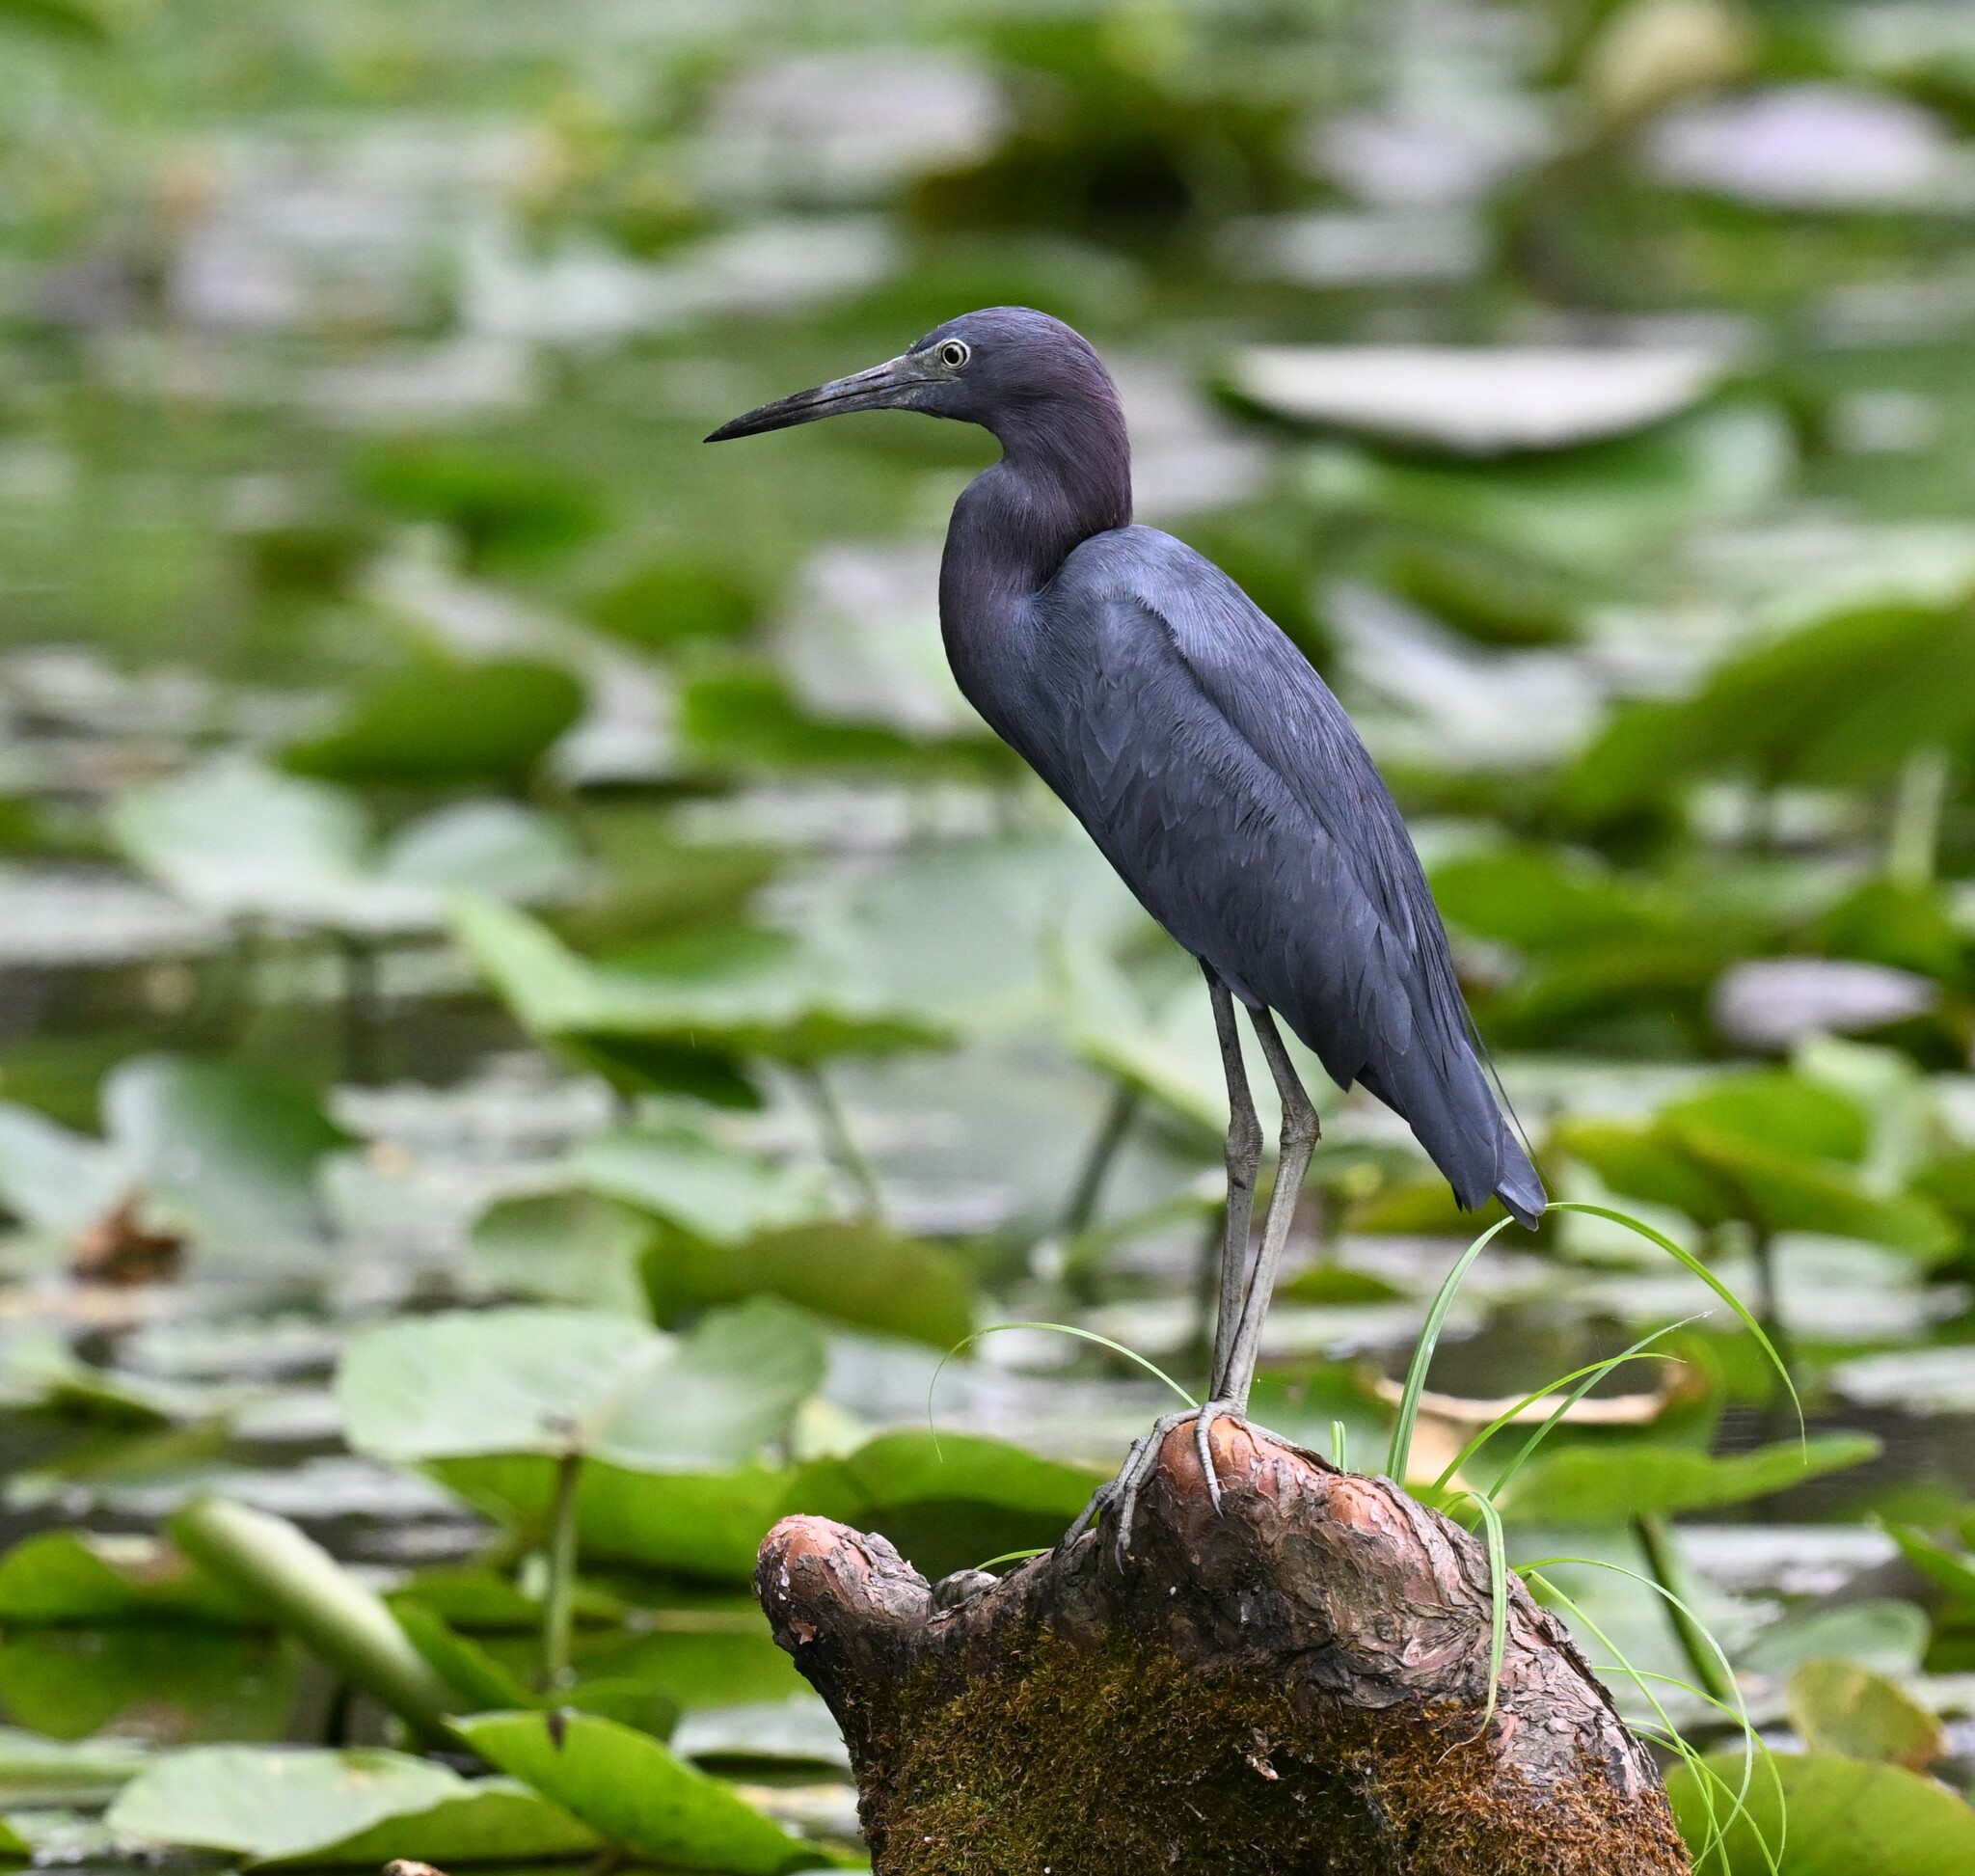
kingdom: Animalia
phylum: Chordata
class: Aves
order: Pelecaniformes
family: Ardeidae
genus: Egretta
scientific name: Egretta caerulea
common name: Little blue heron
